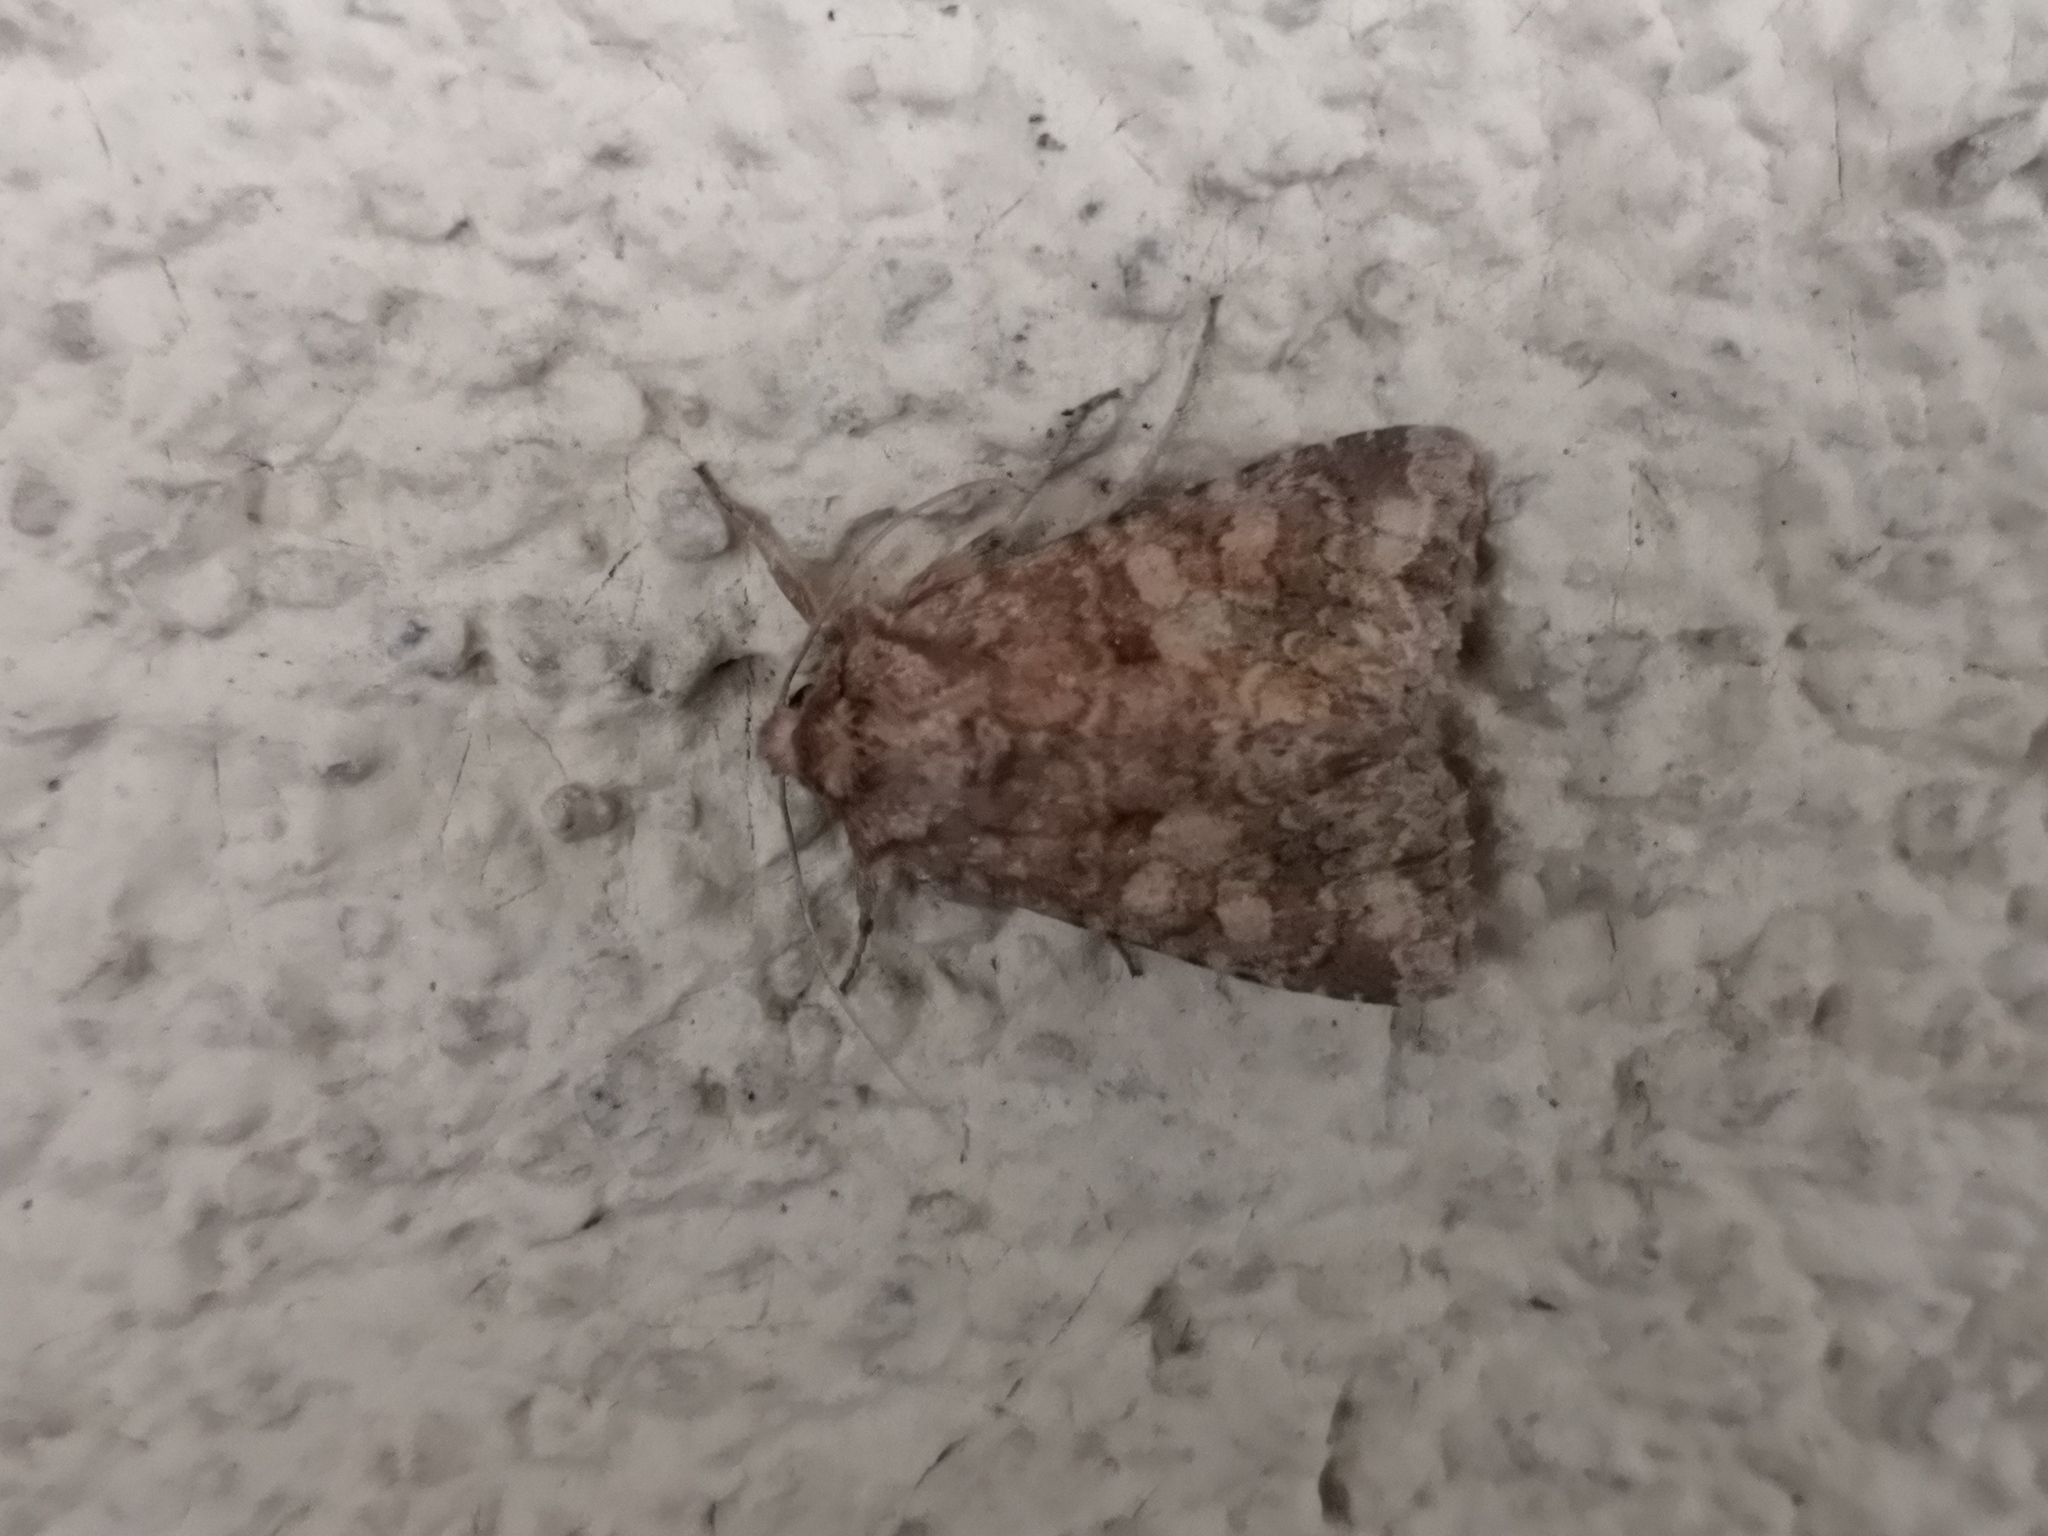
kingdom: Animalia
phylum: Arthropoda
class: Insecta
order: Lepidoptera
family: Noctuidae
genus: Conisania
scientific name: Conisania luteago
